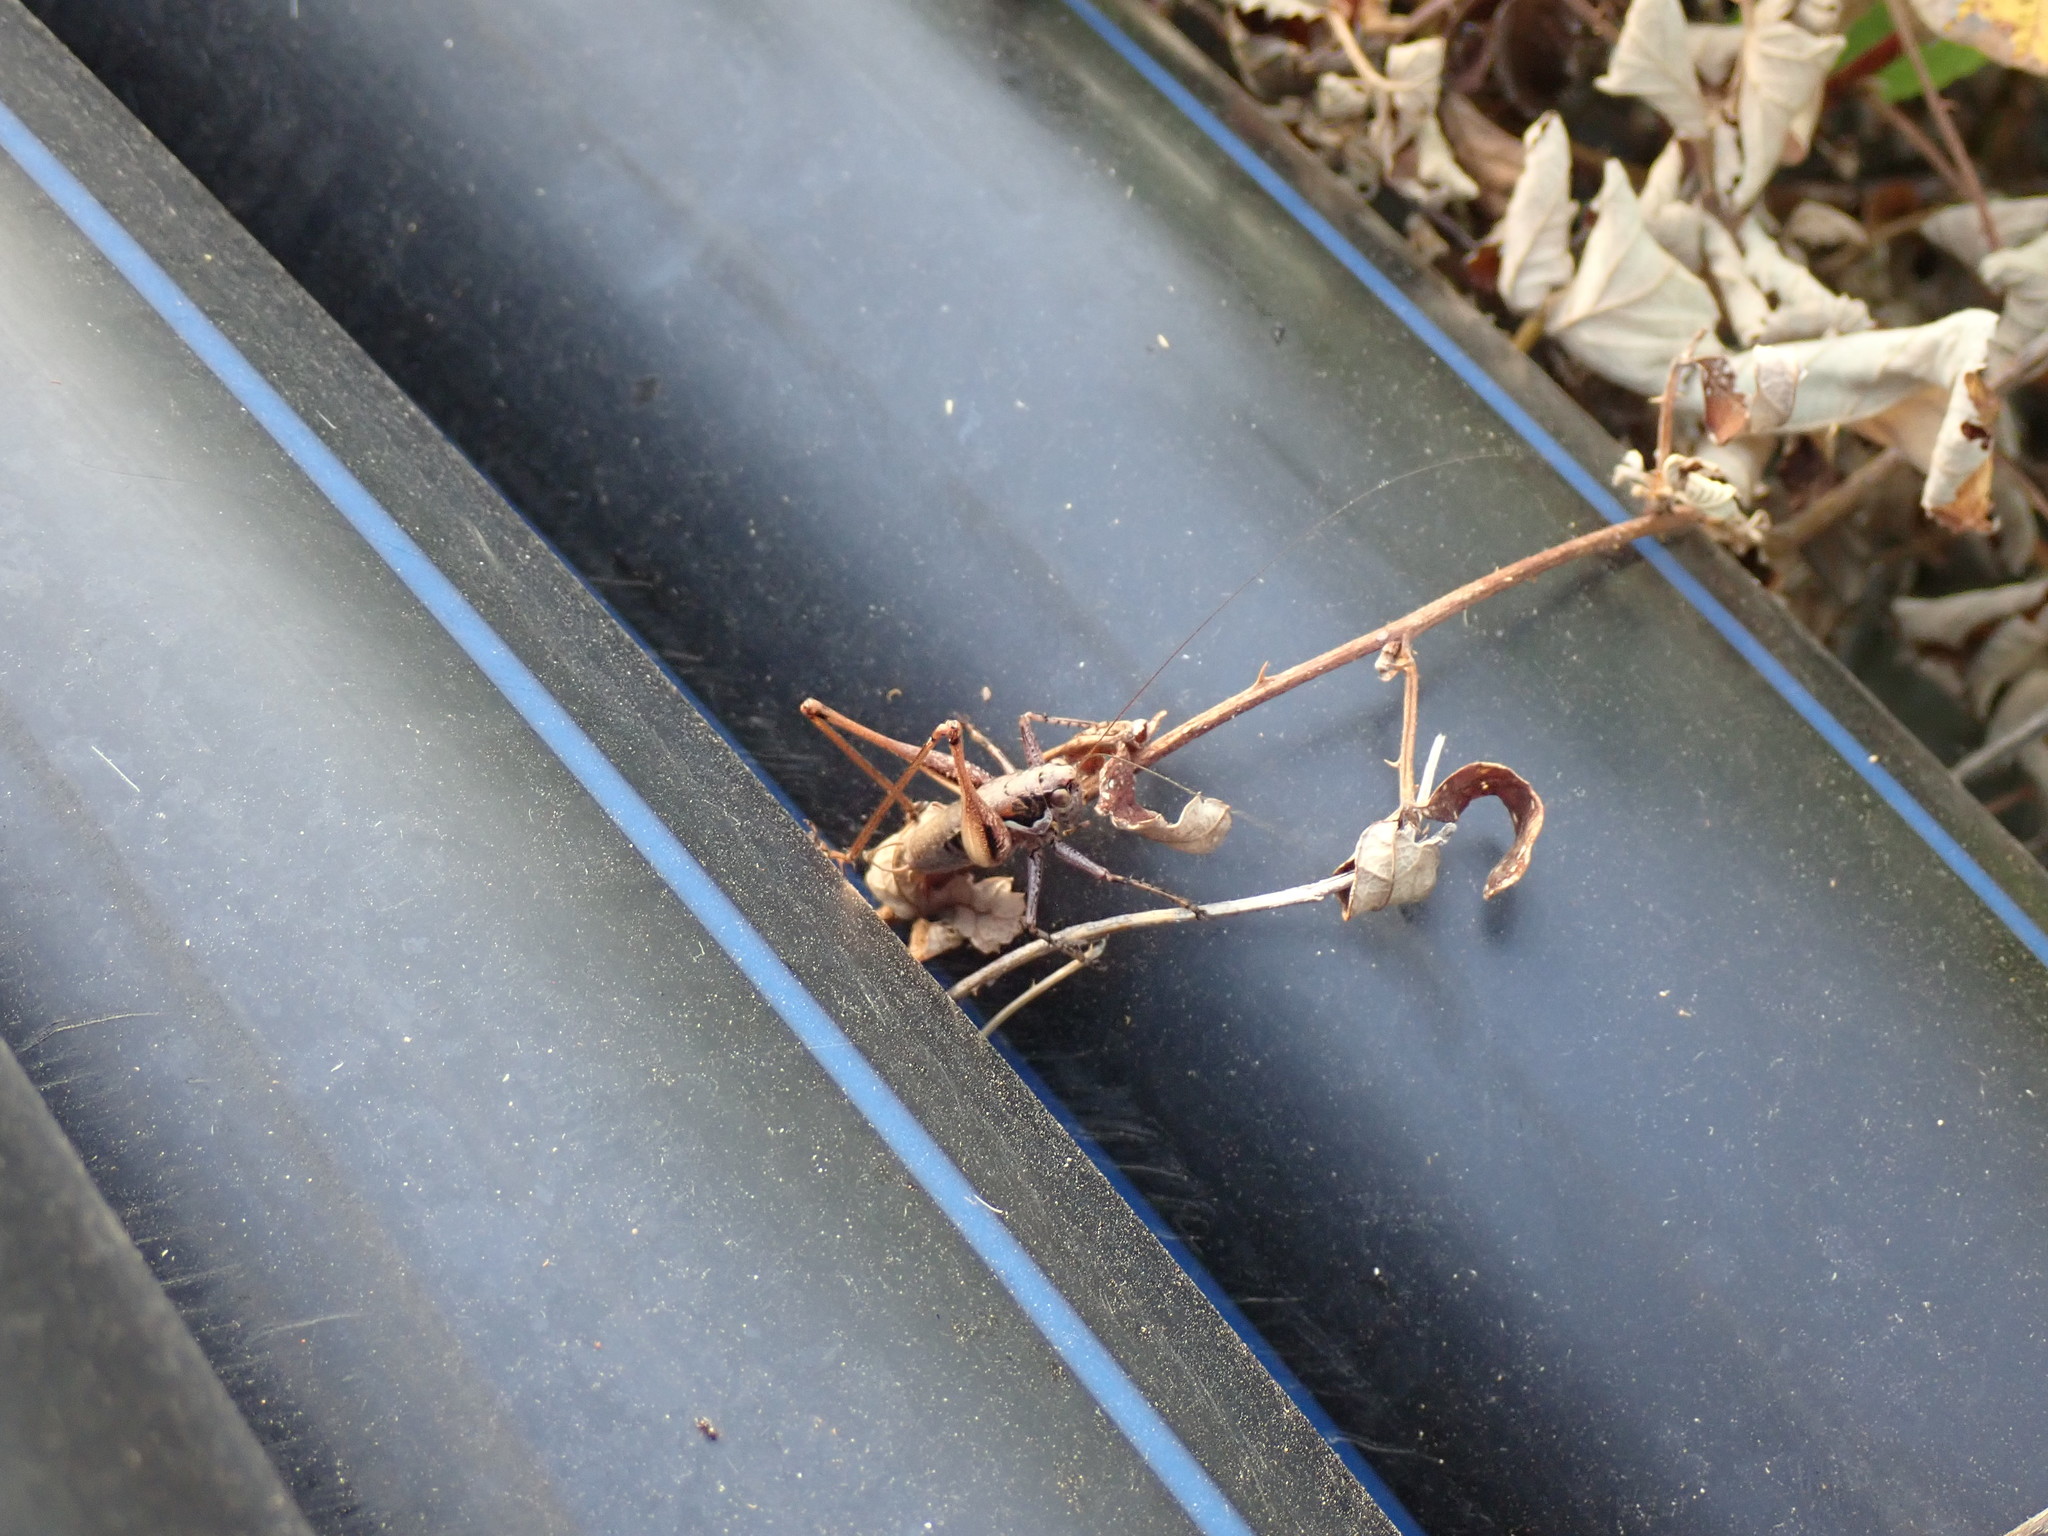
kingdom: Animalia
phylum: Arthropoda
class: Insecta
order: Orthoptera
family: Tettigoniidae
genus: Pachytrachis
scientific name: Pachytrachis frater
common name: Monk bush-cricket
